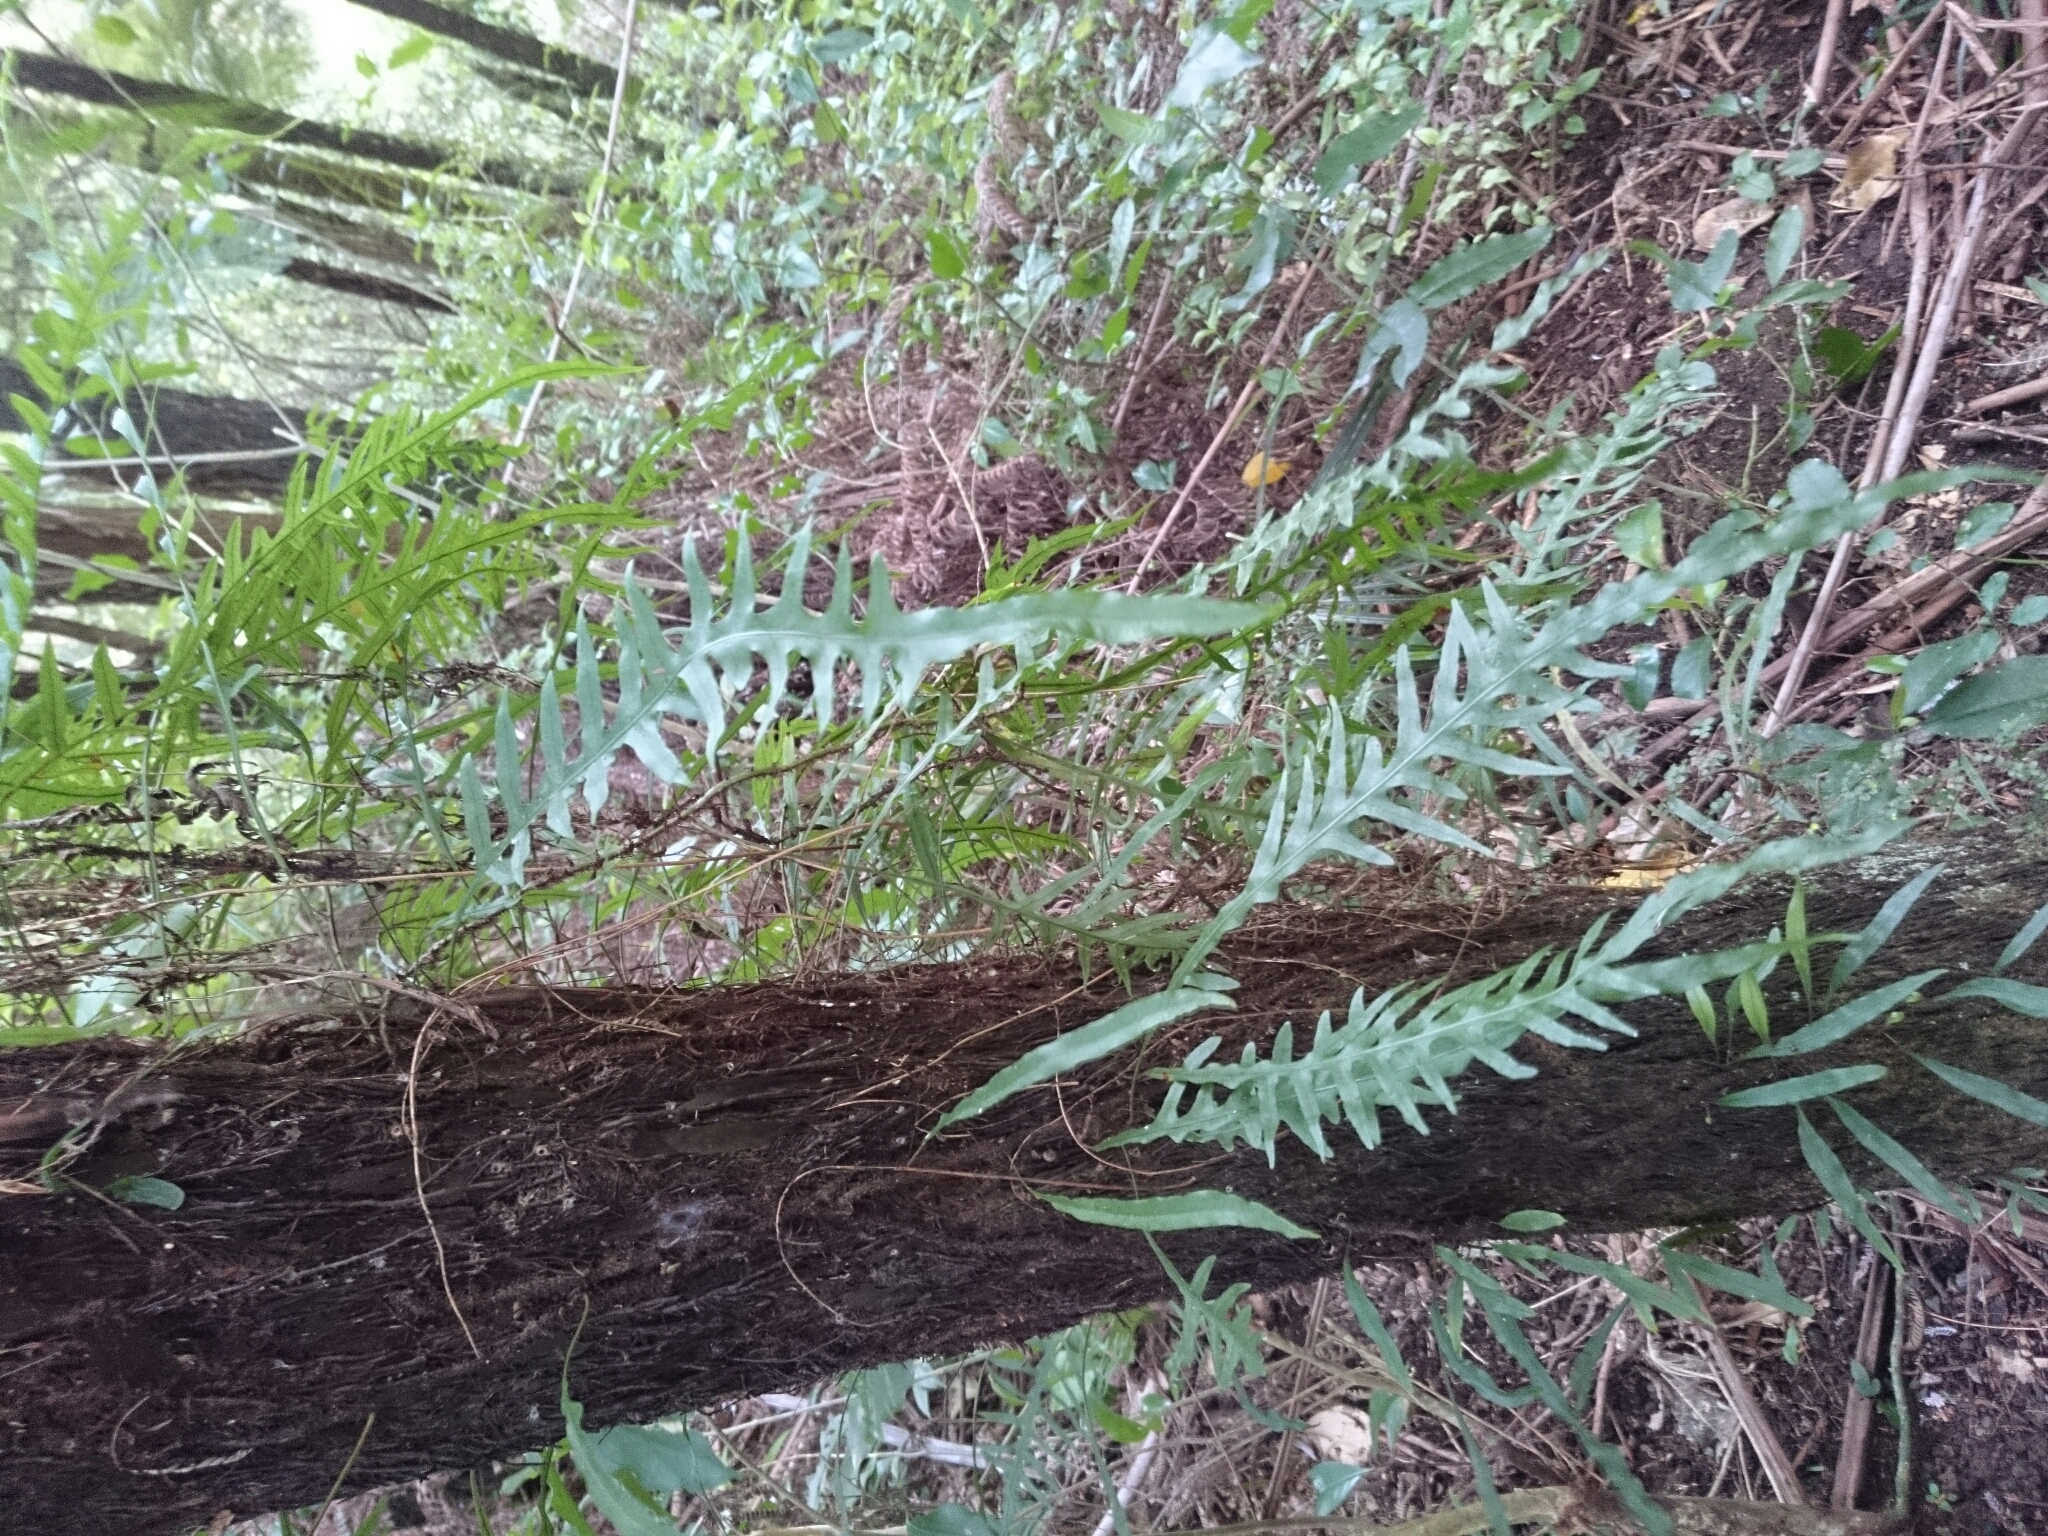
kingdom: Plantae
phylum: Tracheophyta
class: Polypodiopsida
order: Polypodiales
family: Polypodiaceae
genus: Lecanopteris
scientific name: Lecanopteris scandens
